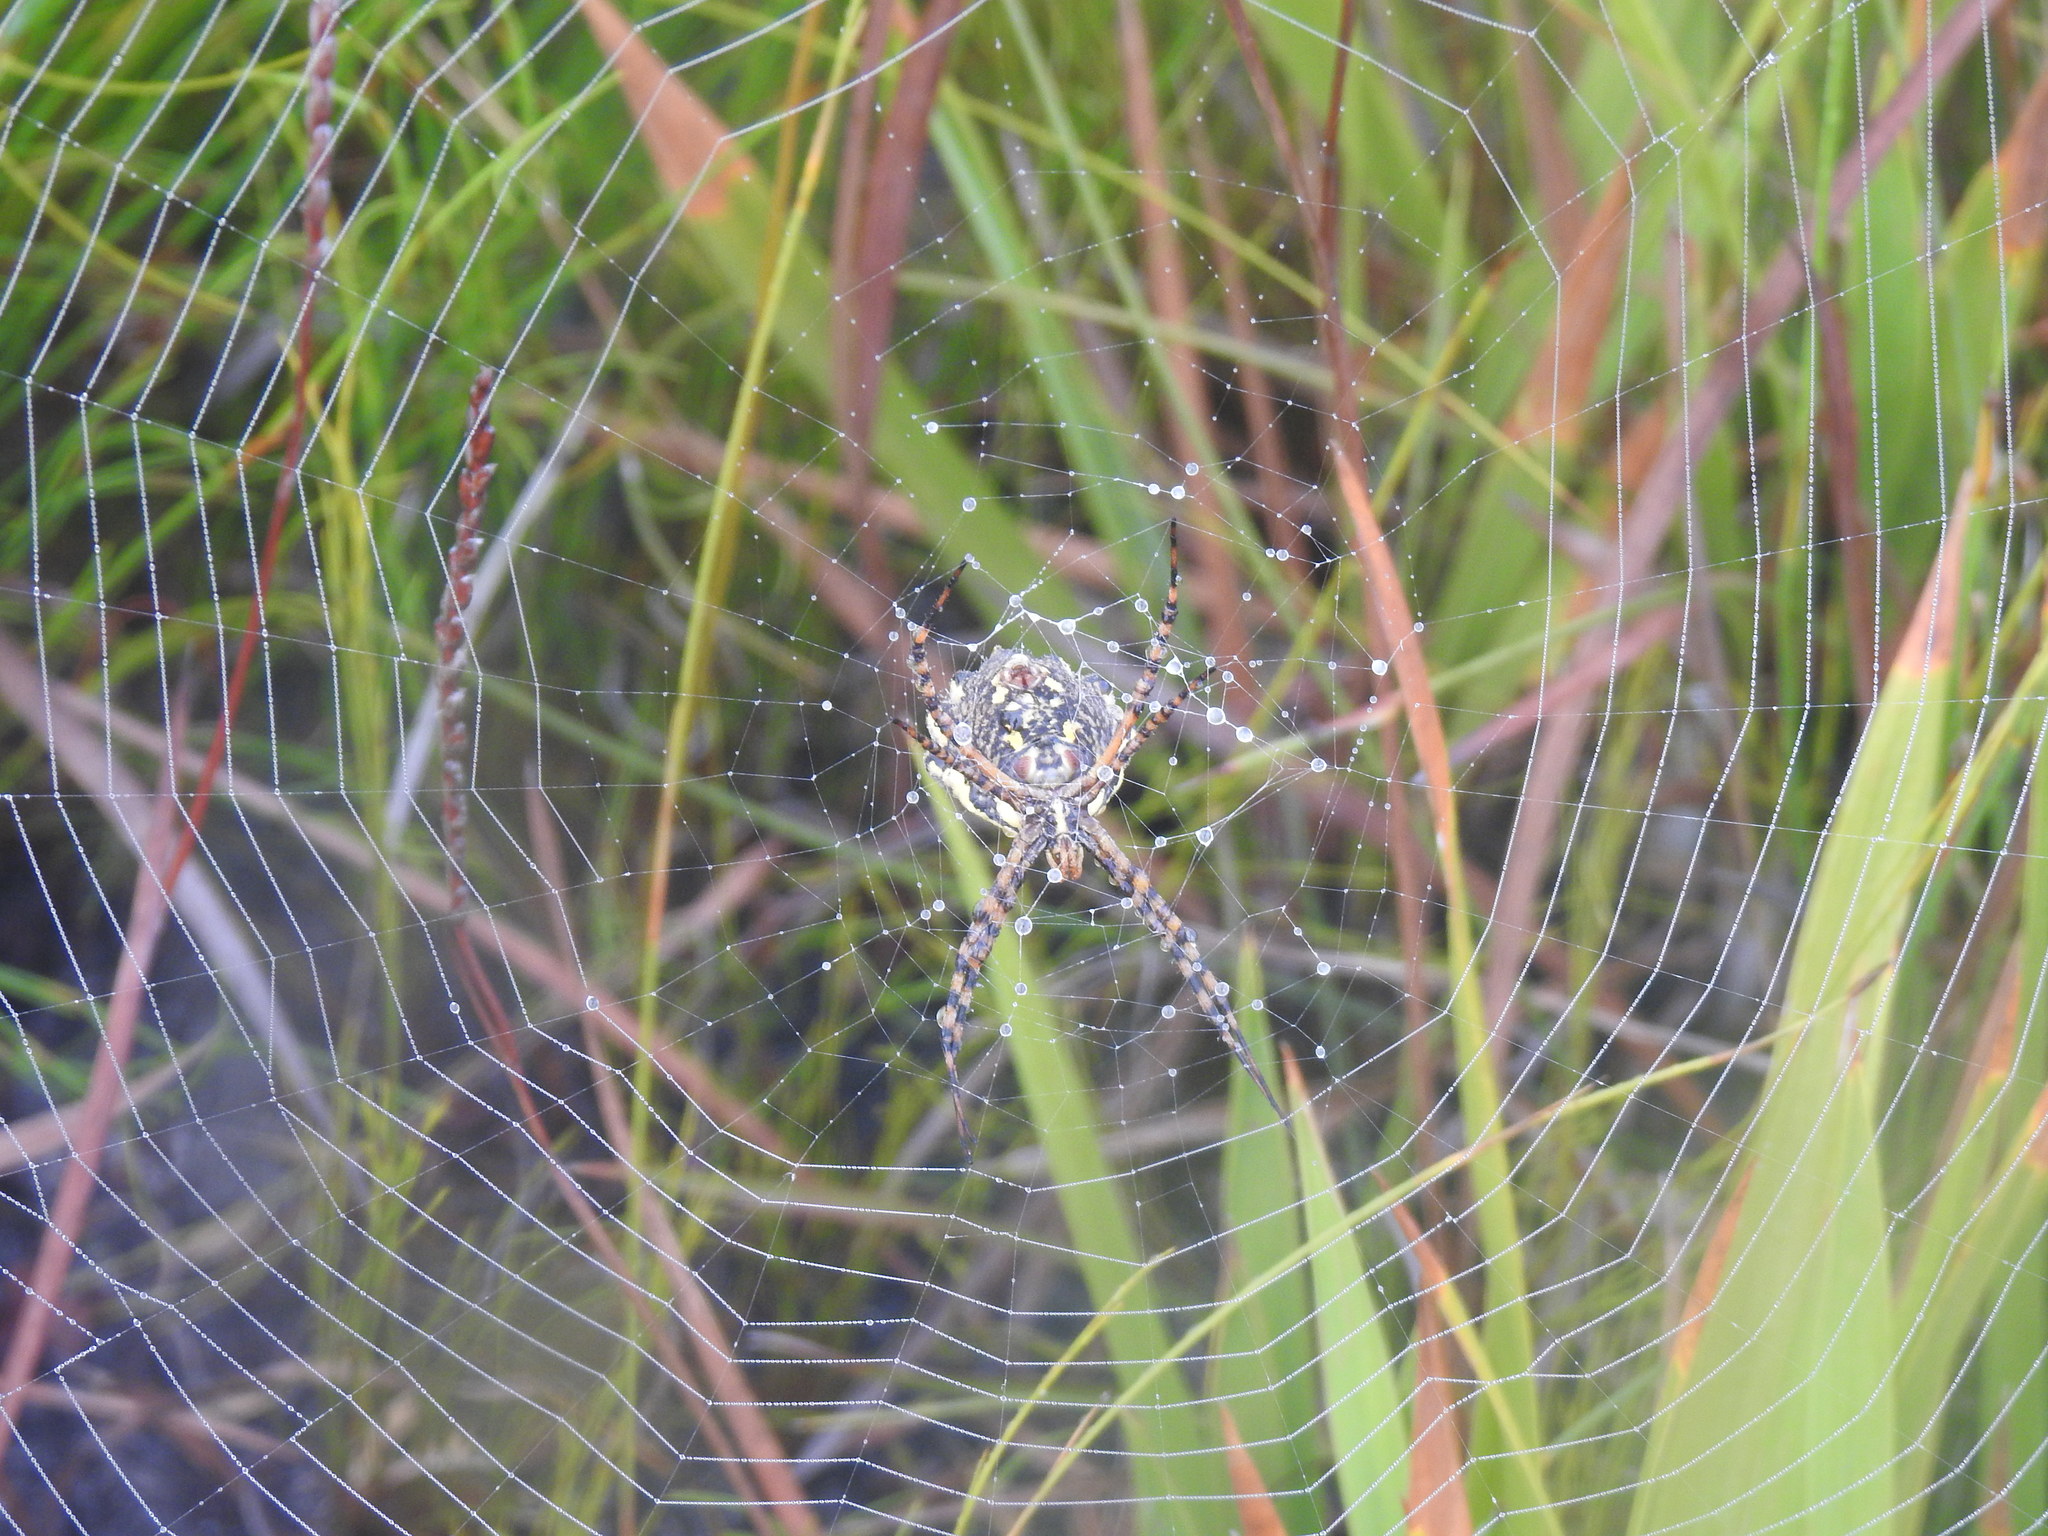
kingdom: Animalia
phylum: Arthropoda
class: Arachnida
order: Araneae
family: Araneidae
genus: Argiope
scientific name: Argiope australis
